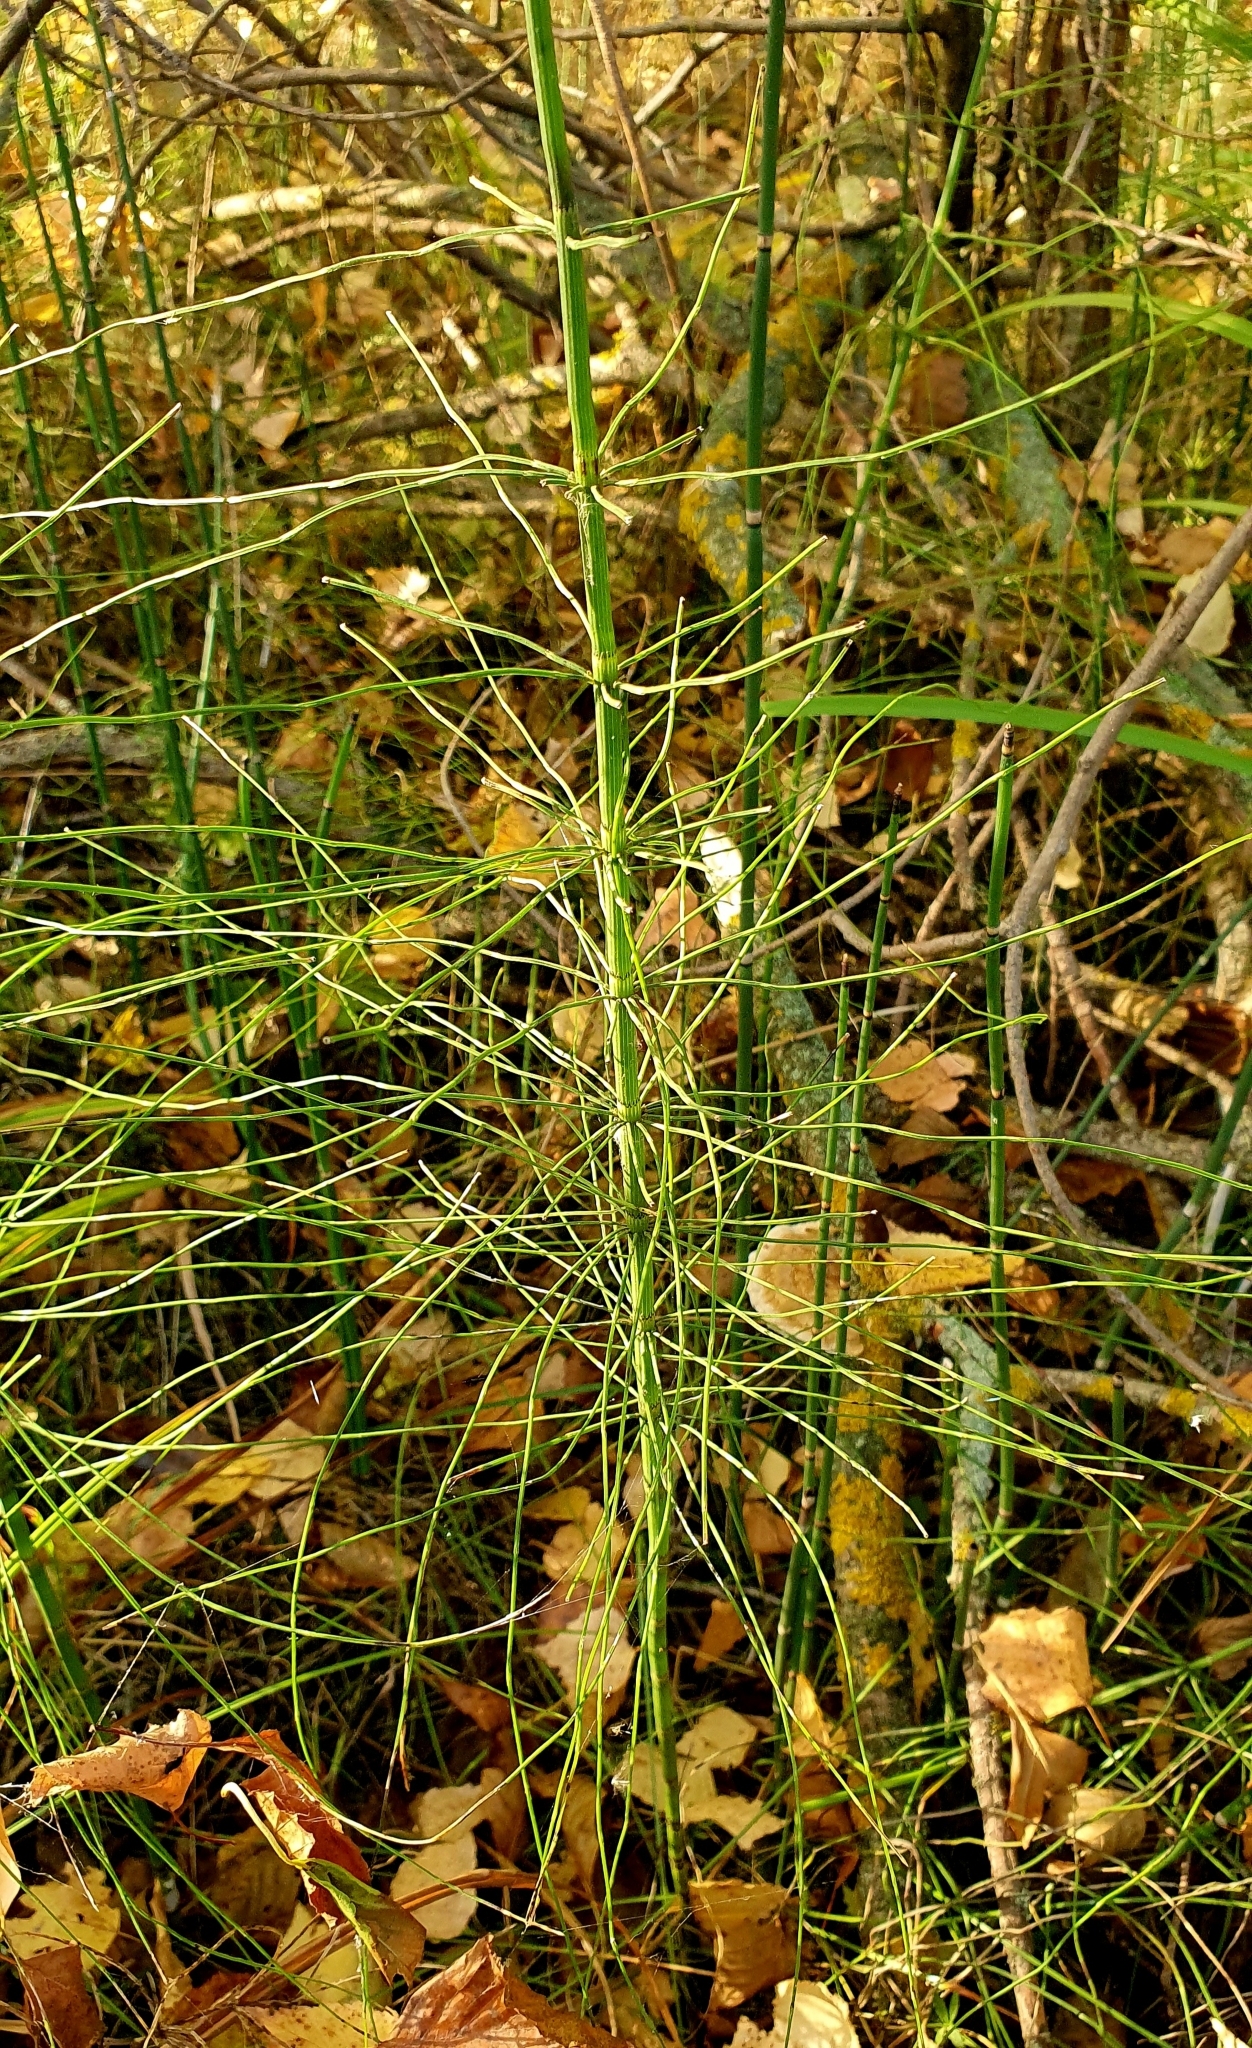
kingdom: Plantae
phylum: Tracheophyta
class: Polypodiopsida
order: Equisetales
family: Equisetaceae
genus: Equisetum
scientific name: Equisetum fluviatile
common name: Water horsetail
